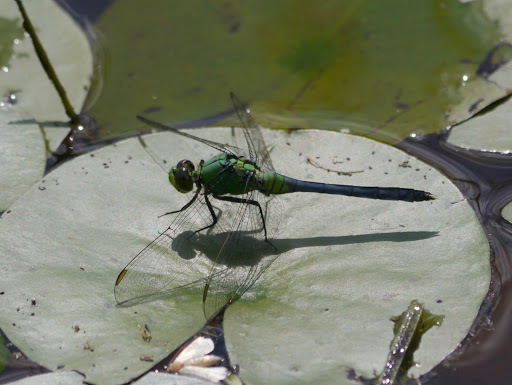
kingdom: Animalia
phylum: Arthropoda
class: Insecta
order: Odonata
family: Libellulidae
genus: Erythemis
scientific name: Erythemis simplicicollis
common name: Eastern pondhawk
